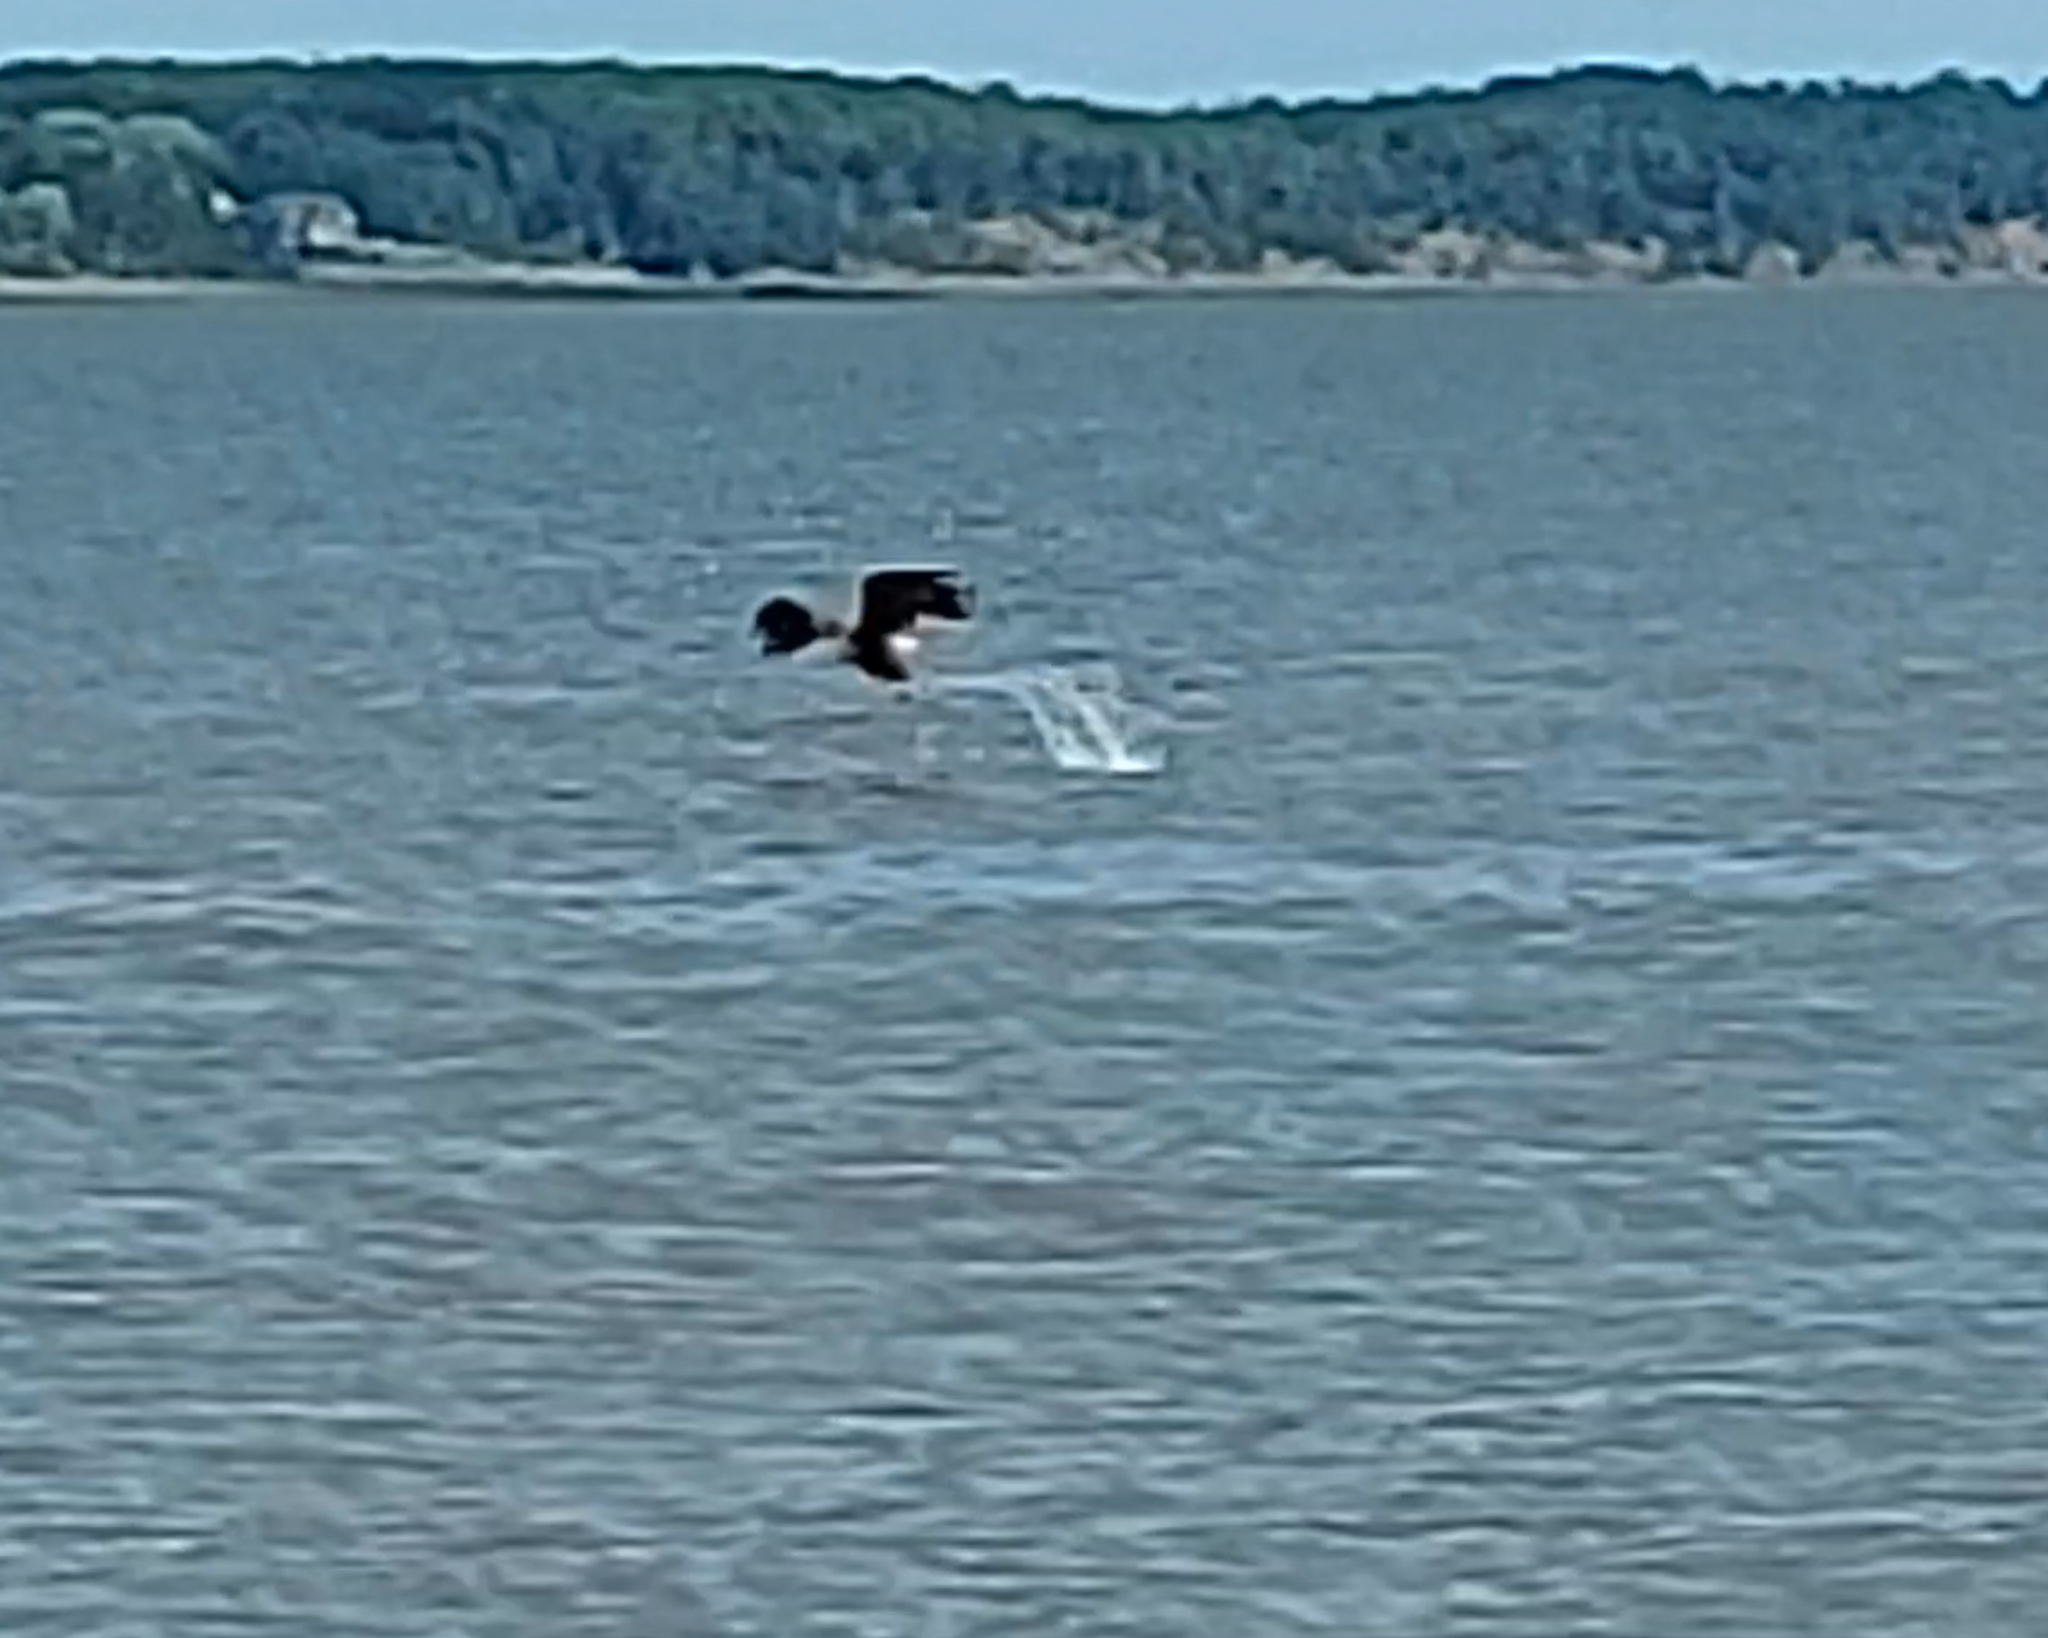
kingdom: Animalia
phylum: Chordata
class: Aves
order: Accipitriformes
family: Accipitridae
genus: Haliaeetus
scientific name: Haliaeetus leucocephalus
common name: Bald eagle
